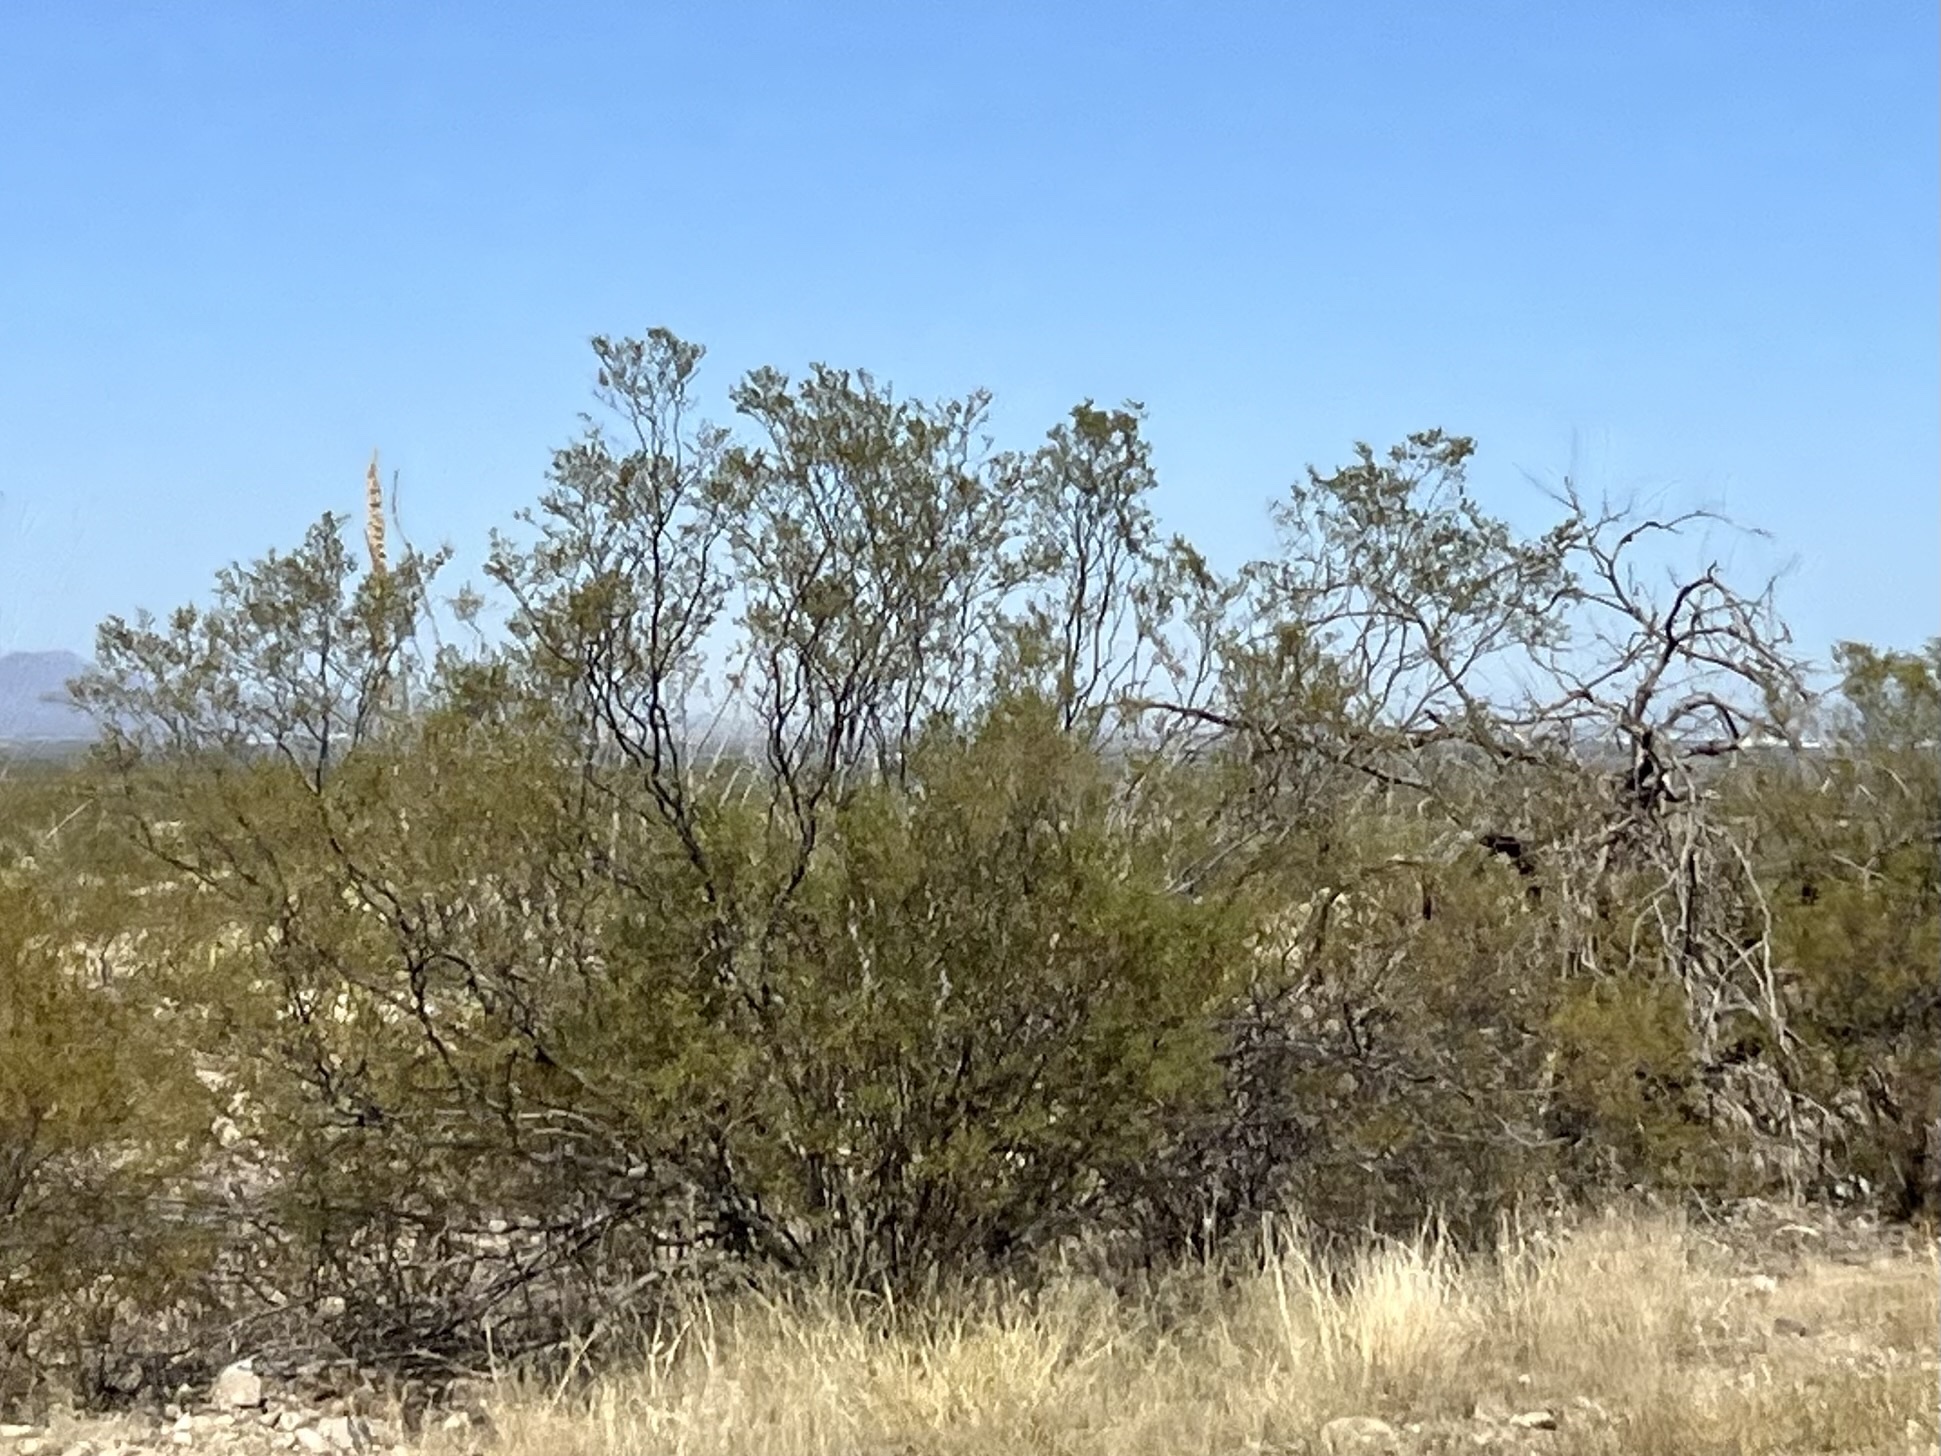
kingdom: Plantae
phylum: Tracheophyta
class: Magnoliopsida
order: Zygophyllales
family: Zygophyllaceae
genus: Larrea
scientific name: Larrea tridentata
